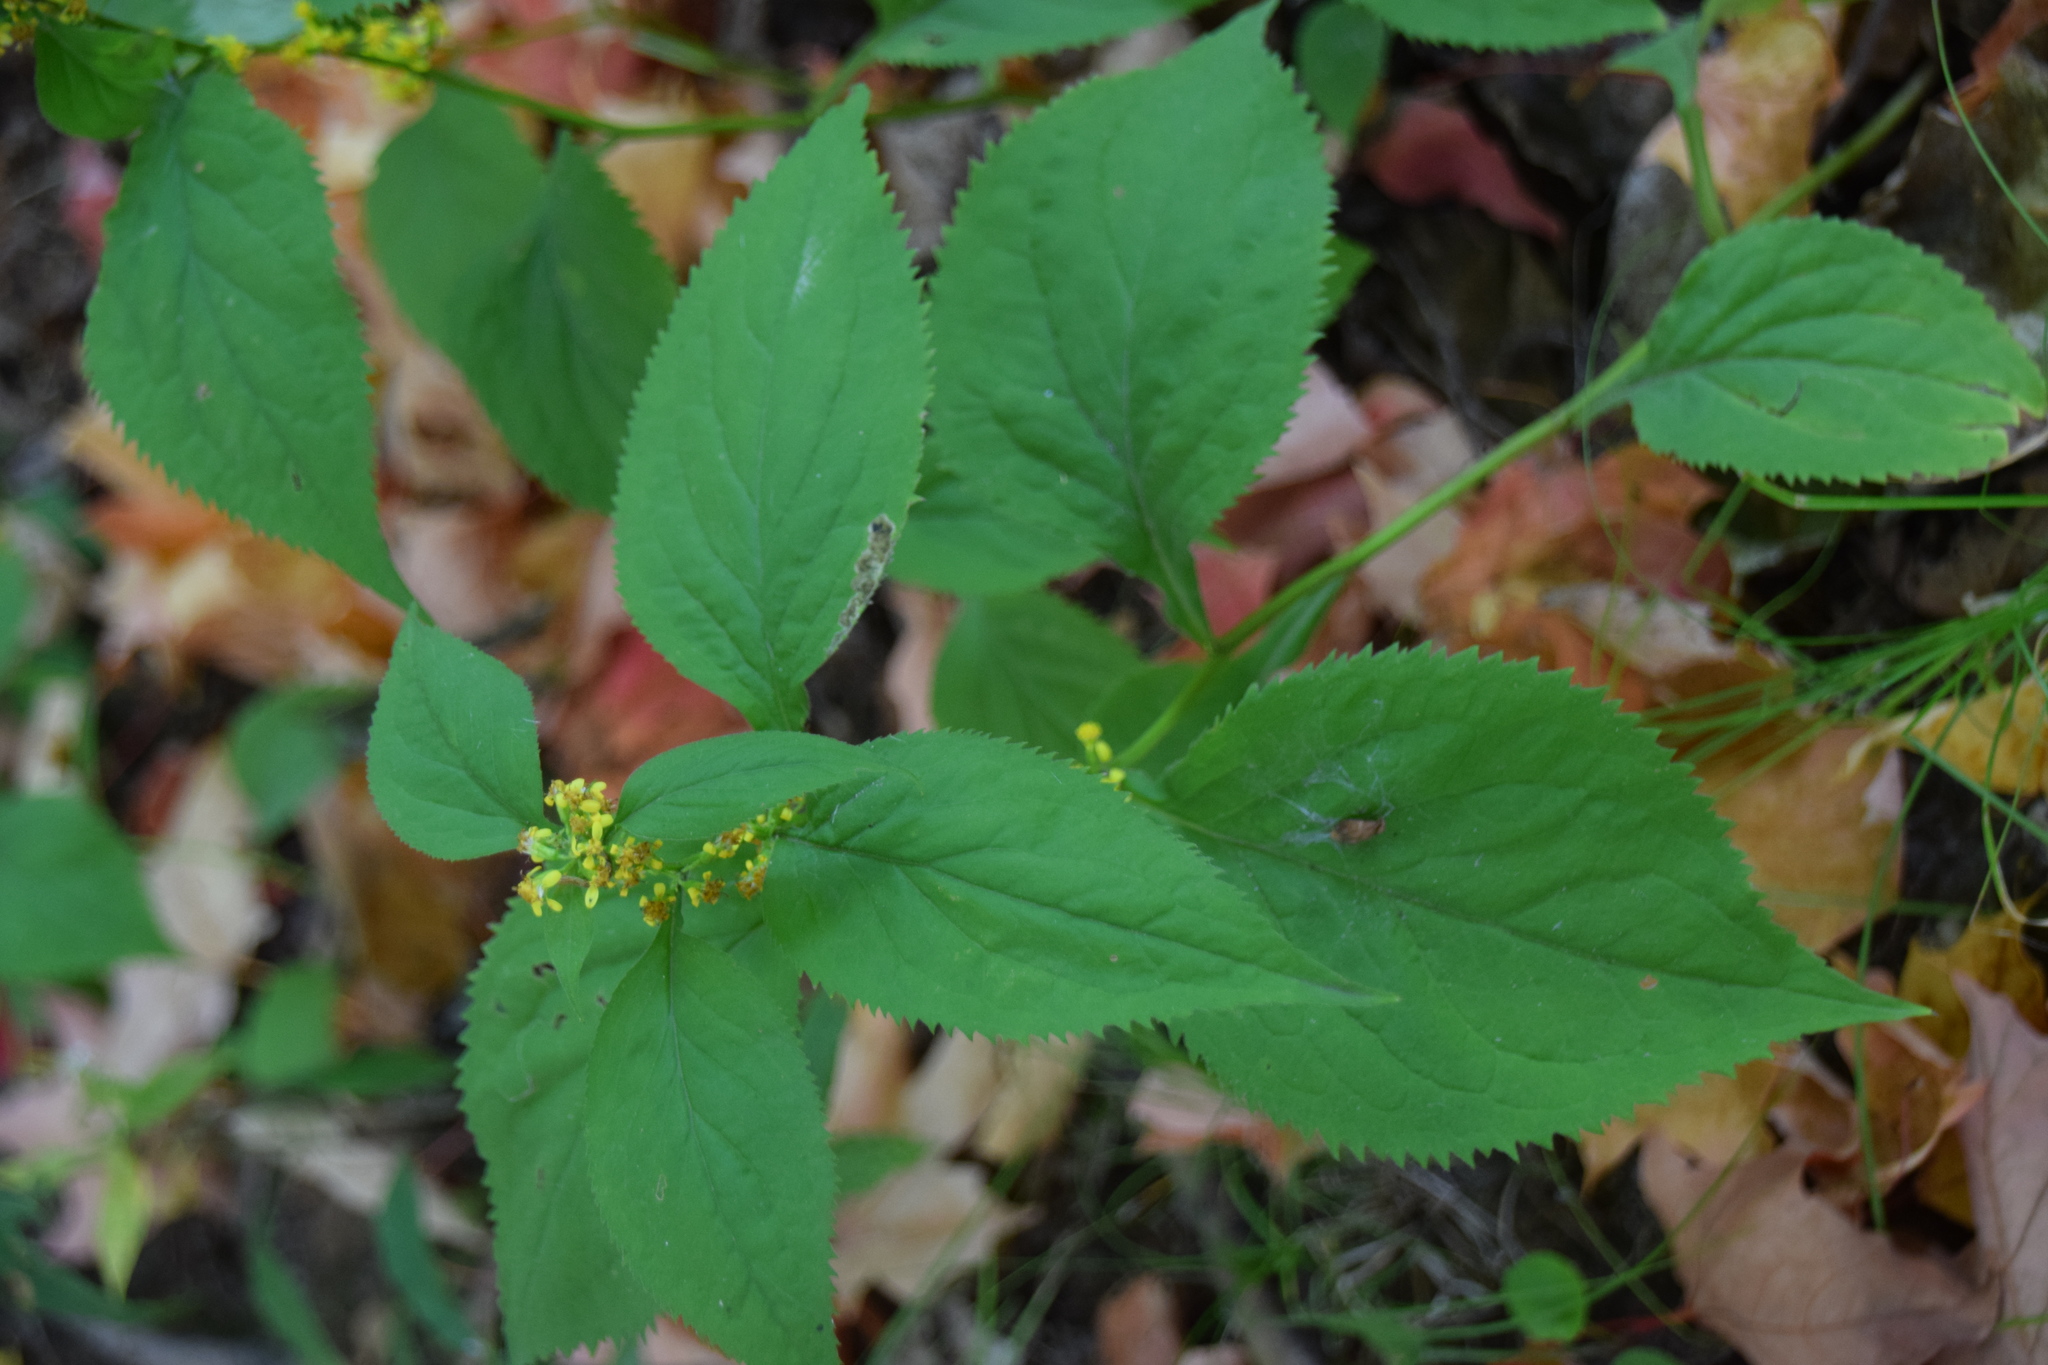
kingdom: Plantae
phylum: Tracheophyta
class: Magnoliopsida
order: Asterales
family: Asteraceae
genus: Solidago
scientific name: Solidago flexicaulis
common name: Zig-zag goldenrod
